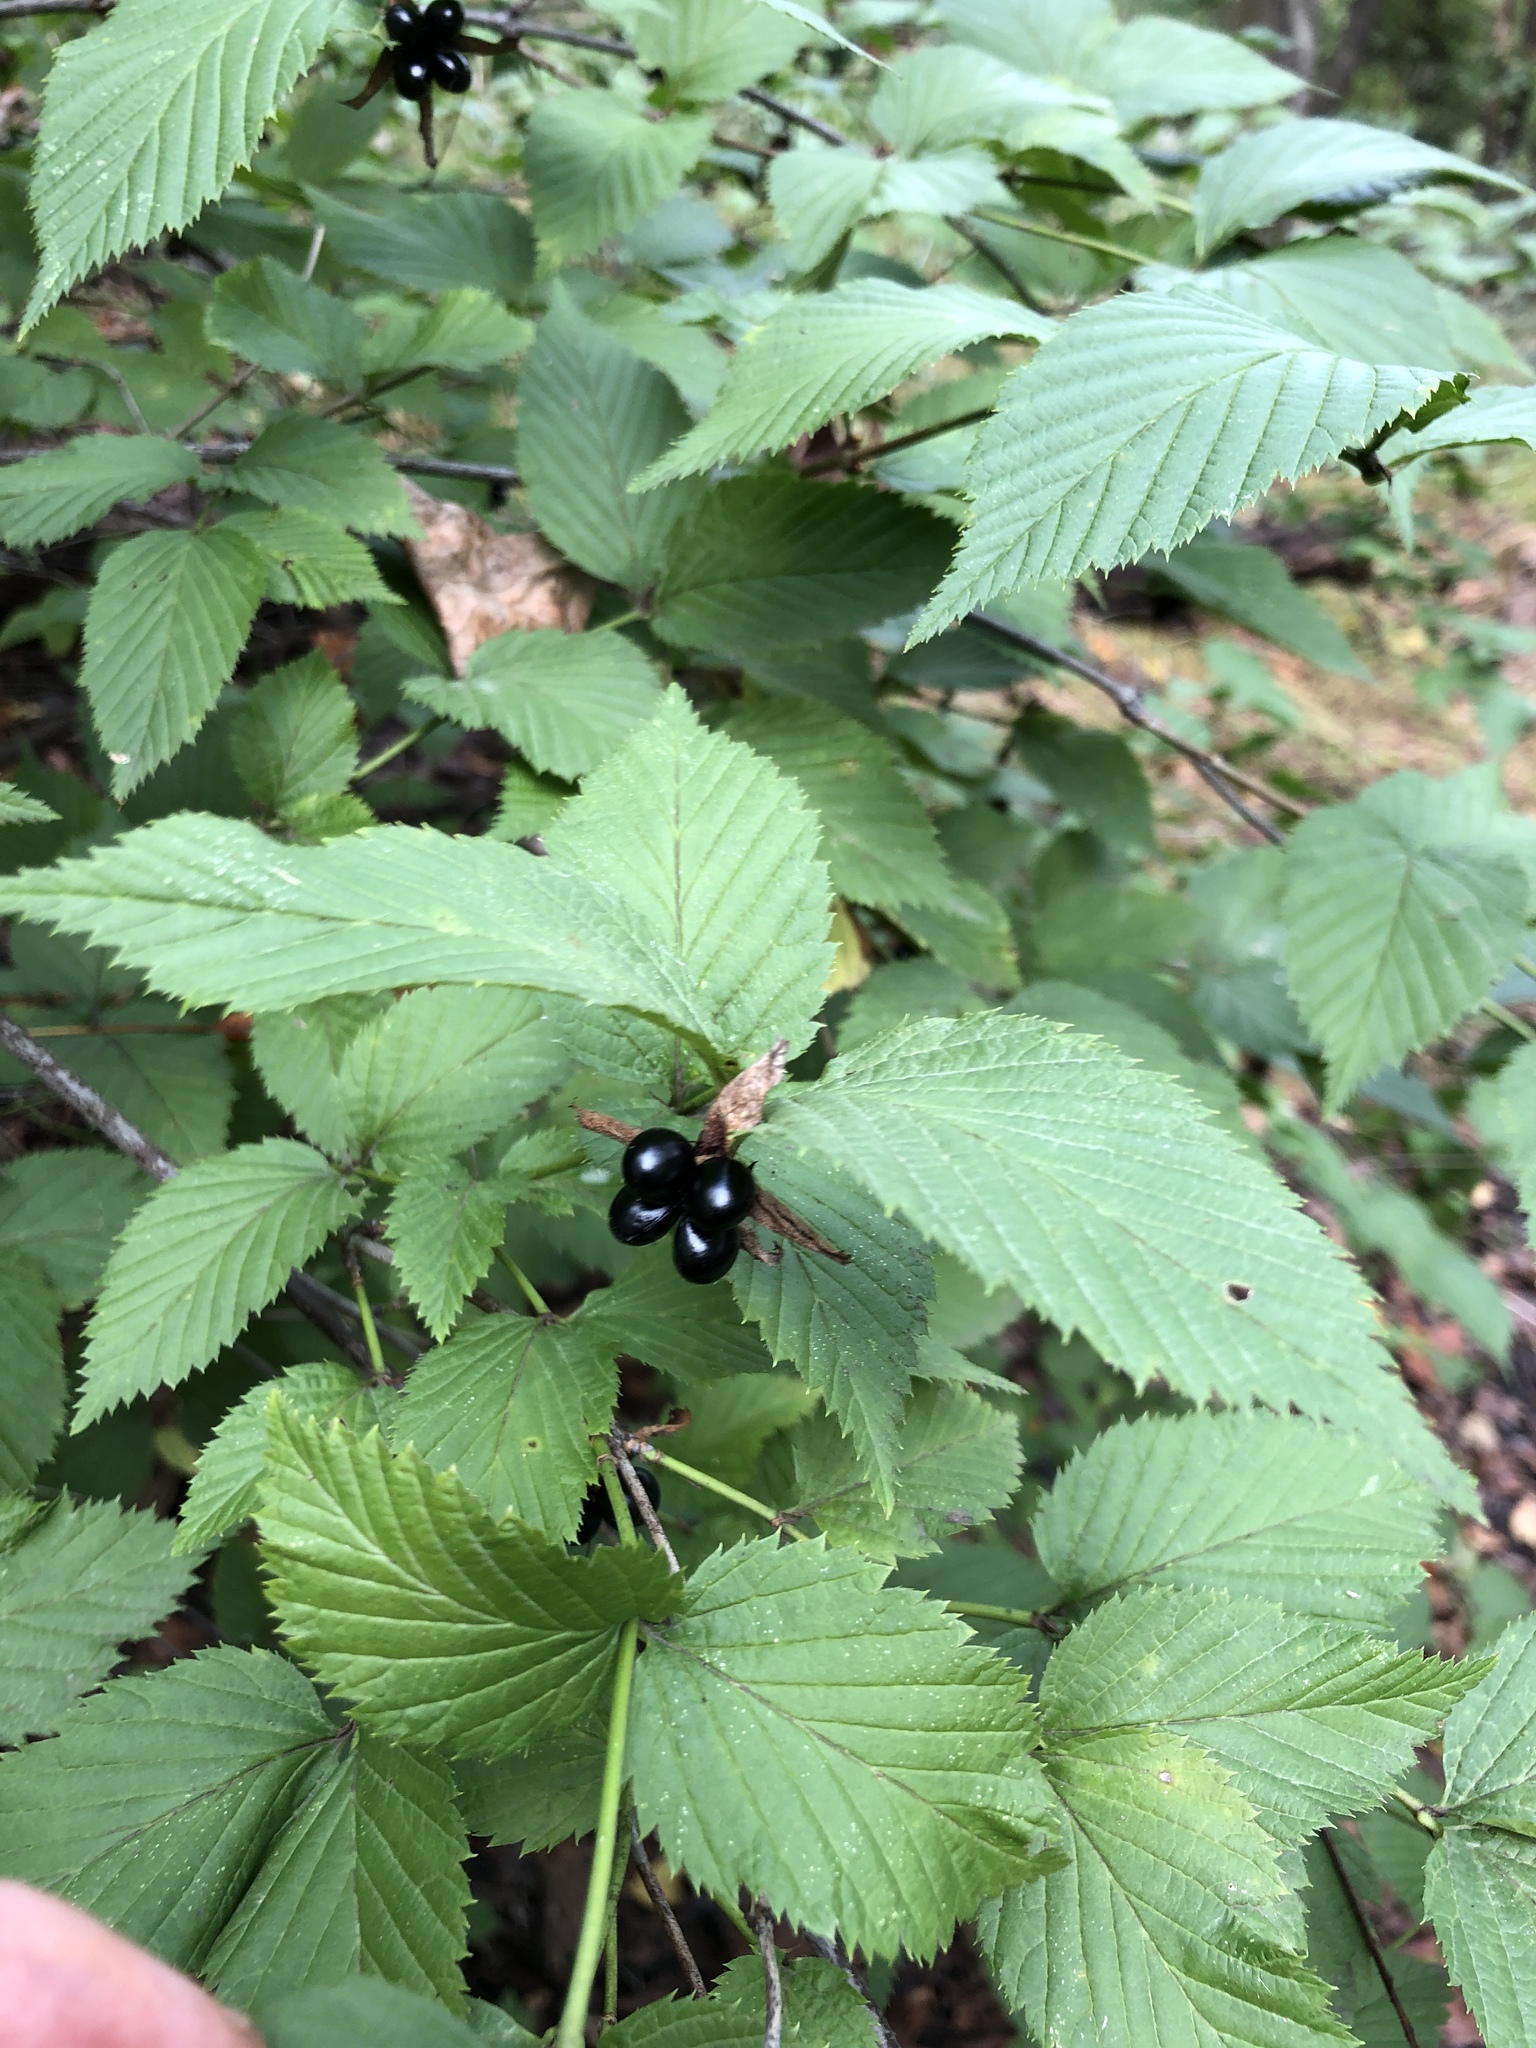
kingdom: Plantae
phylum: Tracheophyta
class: Magnoliopsida
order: Rosales
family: Rosaceae
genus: Rhodotypos
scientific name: Rhodotypos scandens
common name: Jetbead
